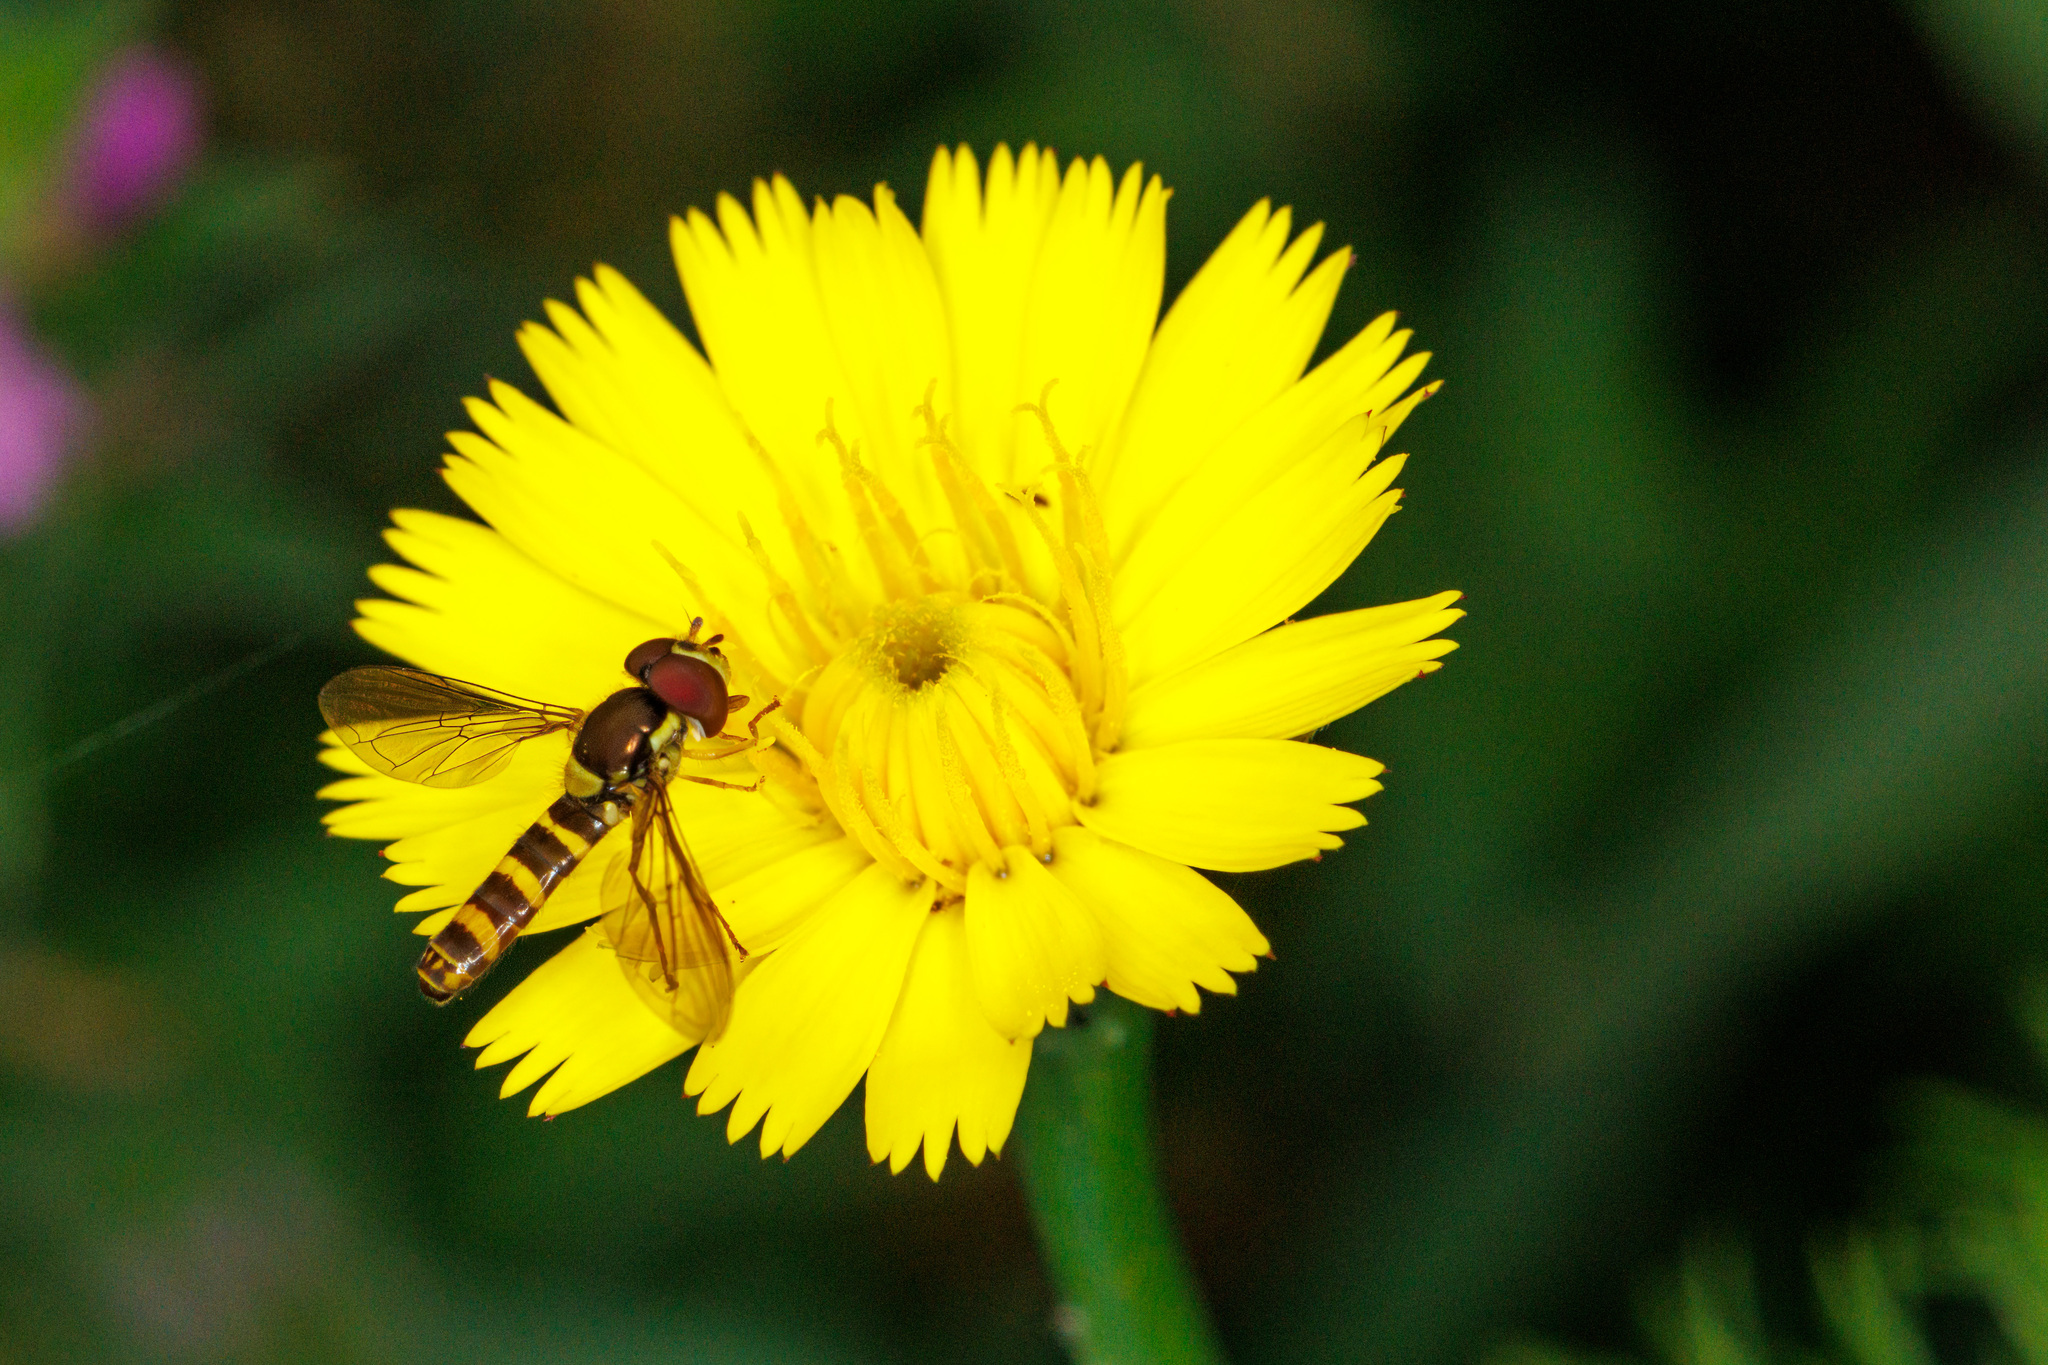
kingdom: Animalia
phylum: Arthropoda
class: Insecta
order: Diptera
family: Syrphidae
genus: Fazia
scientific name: Fazia micrura
